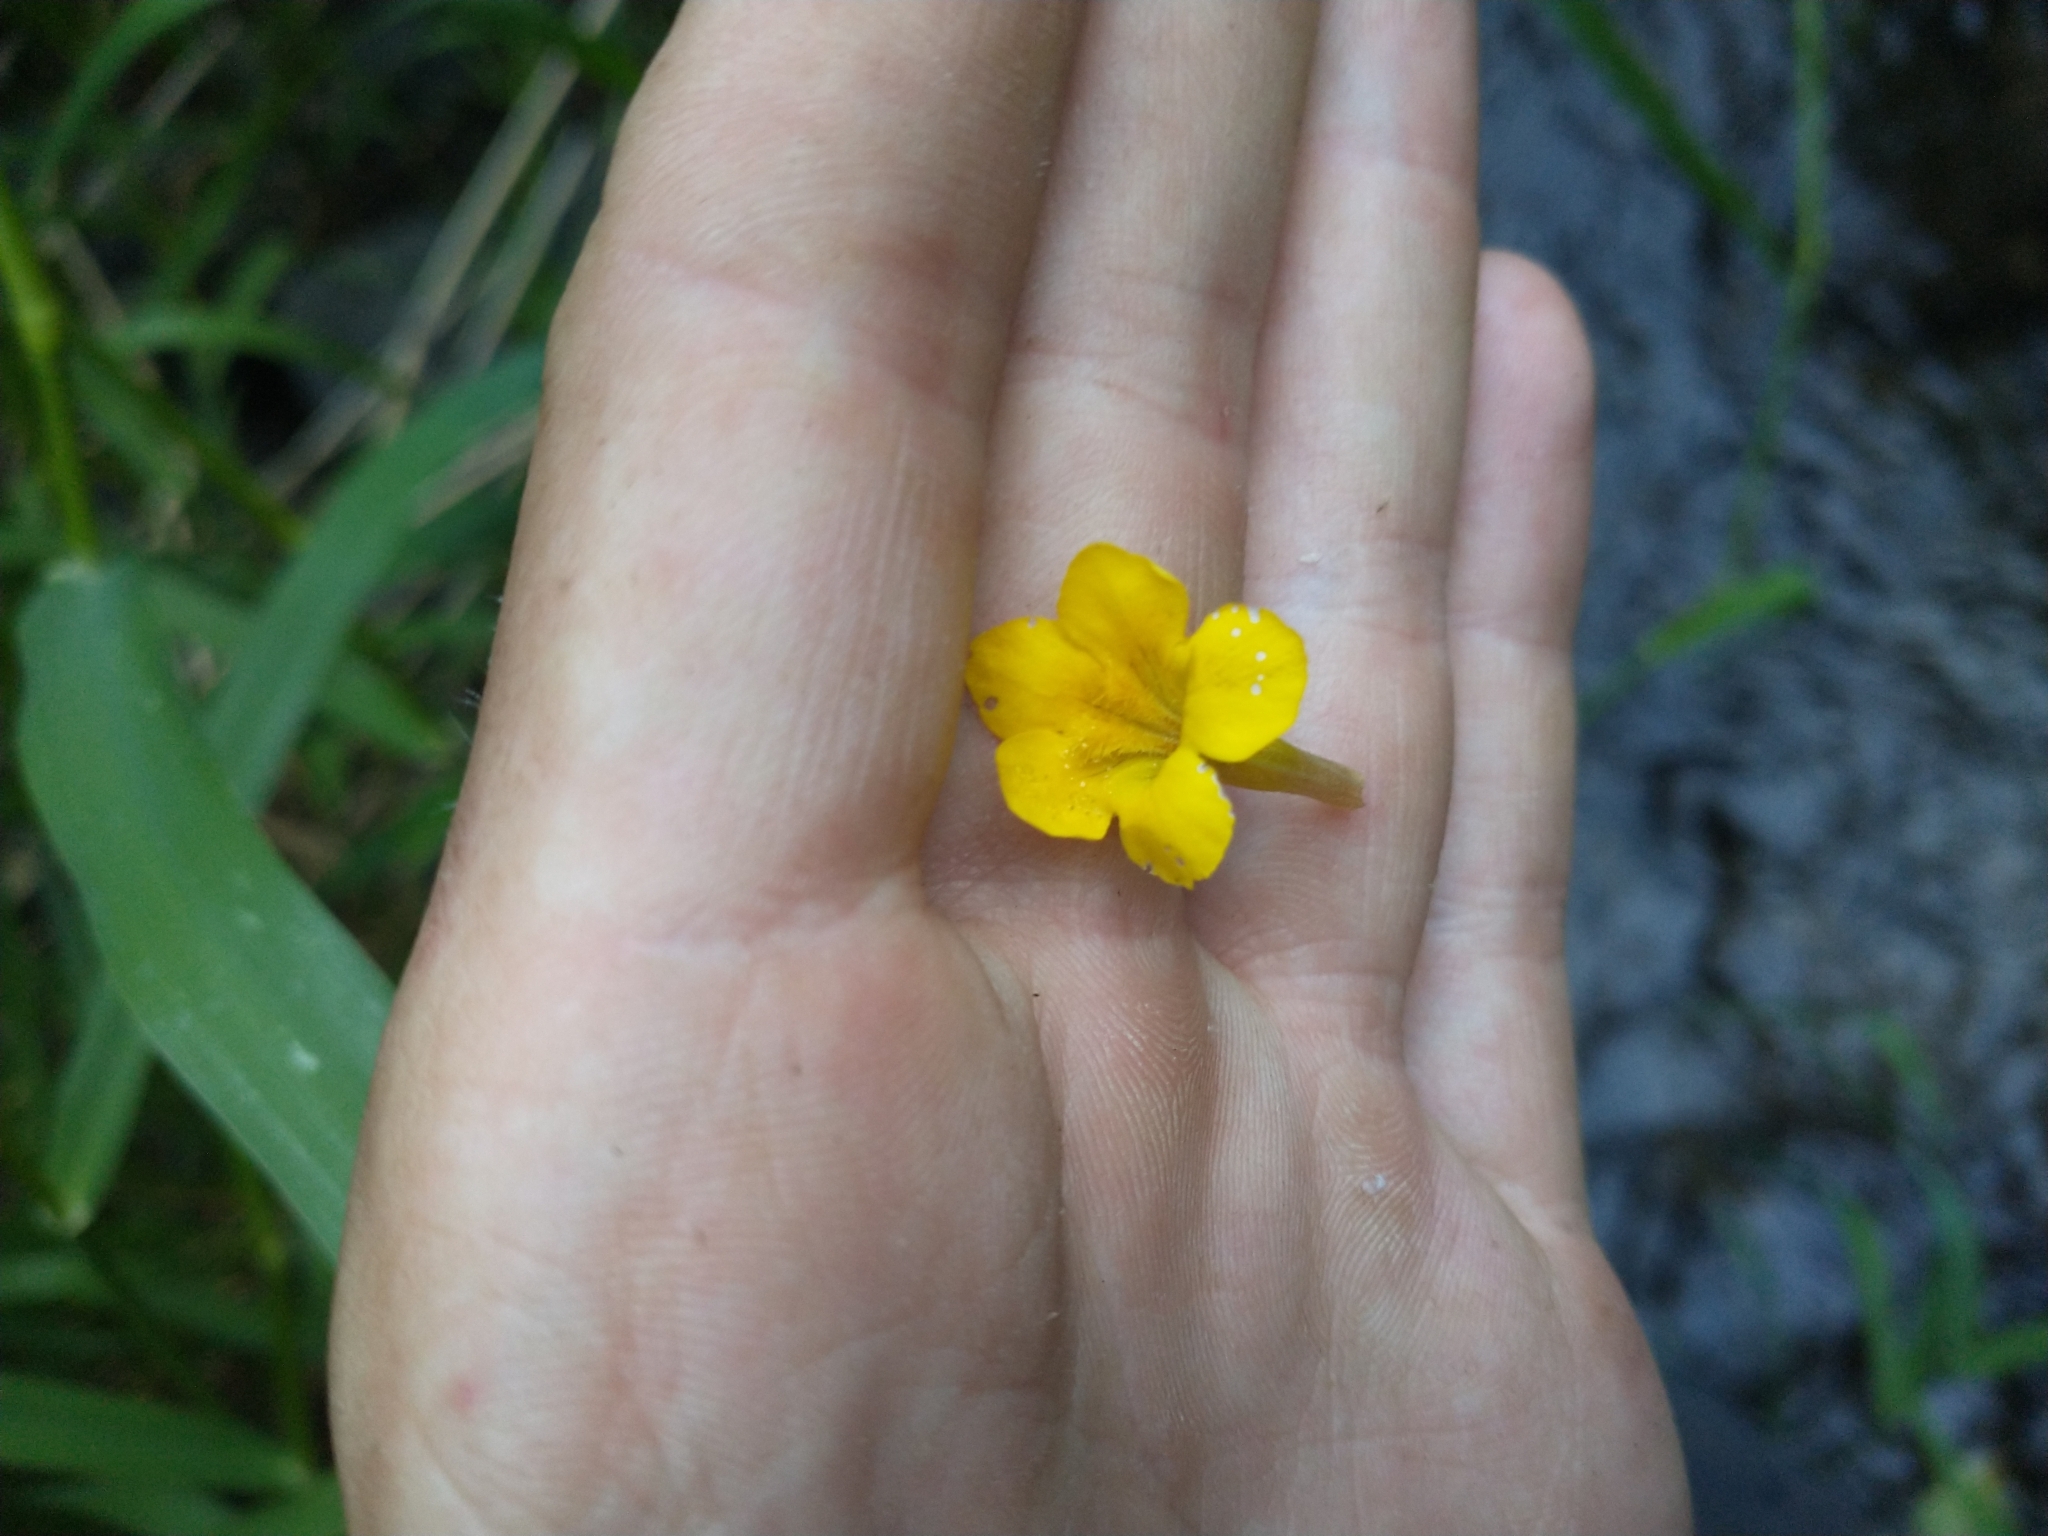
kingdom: Plantae
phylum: Tracheophyta
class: Magnoliopsida
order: Lamiales
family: Phrymaceae
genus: Erythranthe
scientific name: Erythranthe ptilota
